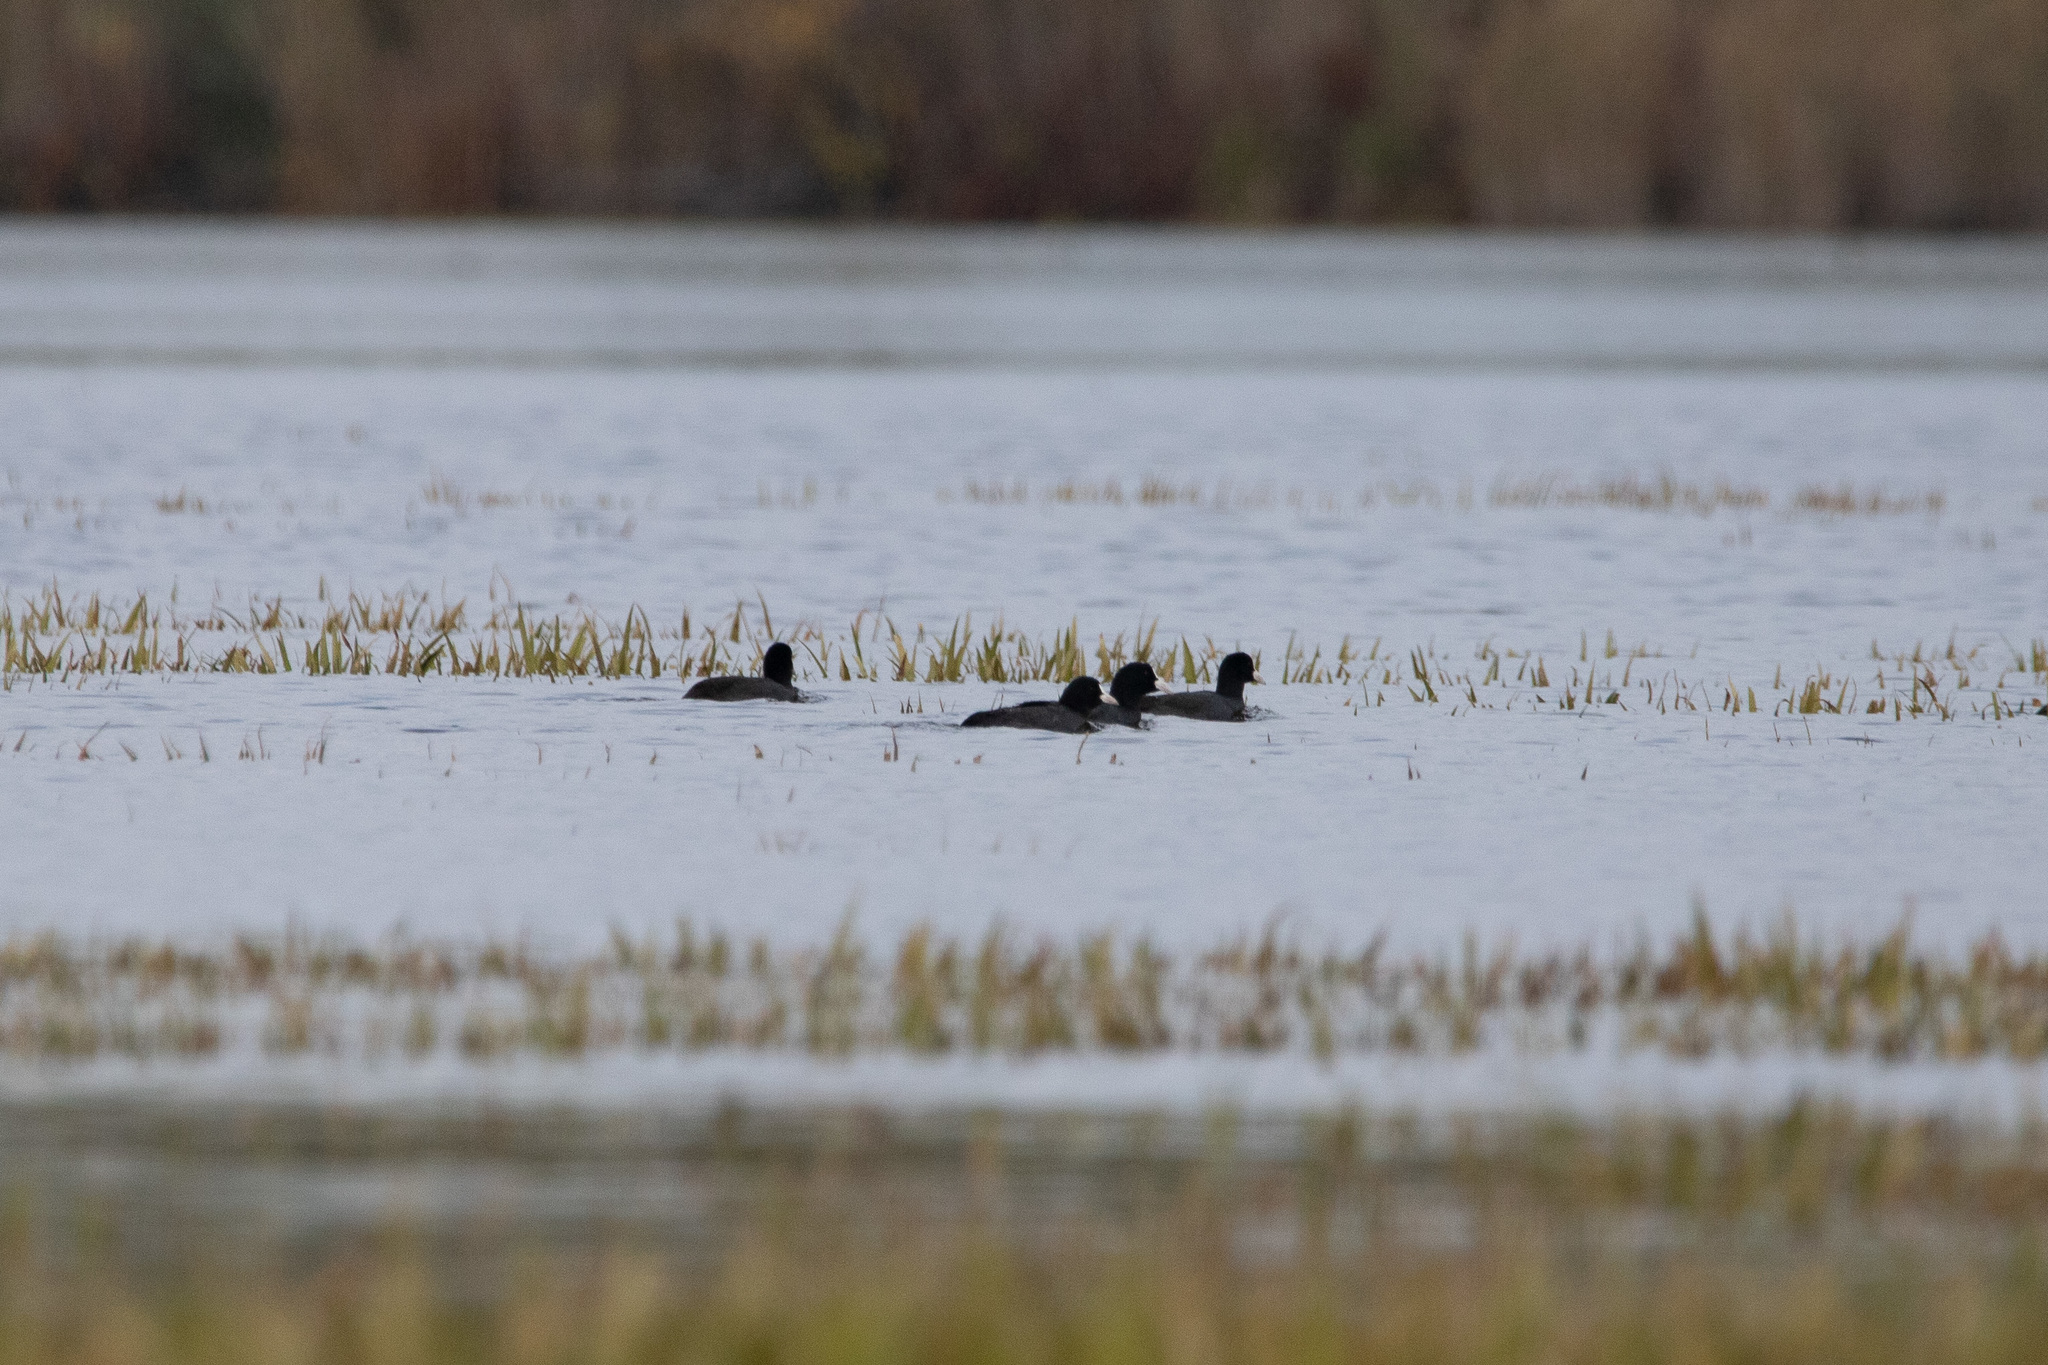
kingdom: Animalia
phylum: Chordata
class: Aves
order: Gruiformes
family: Rallidae
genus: Fulica
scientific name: Fulica atra
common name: Eurasian coot
